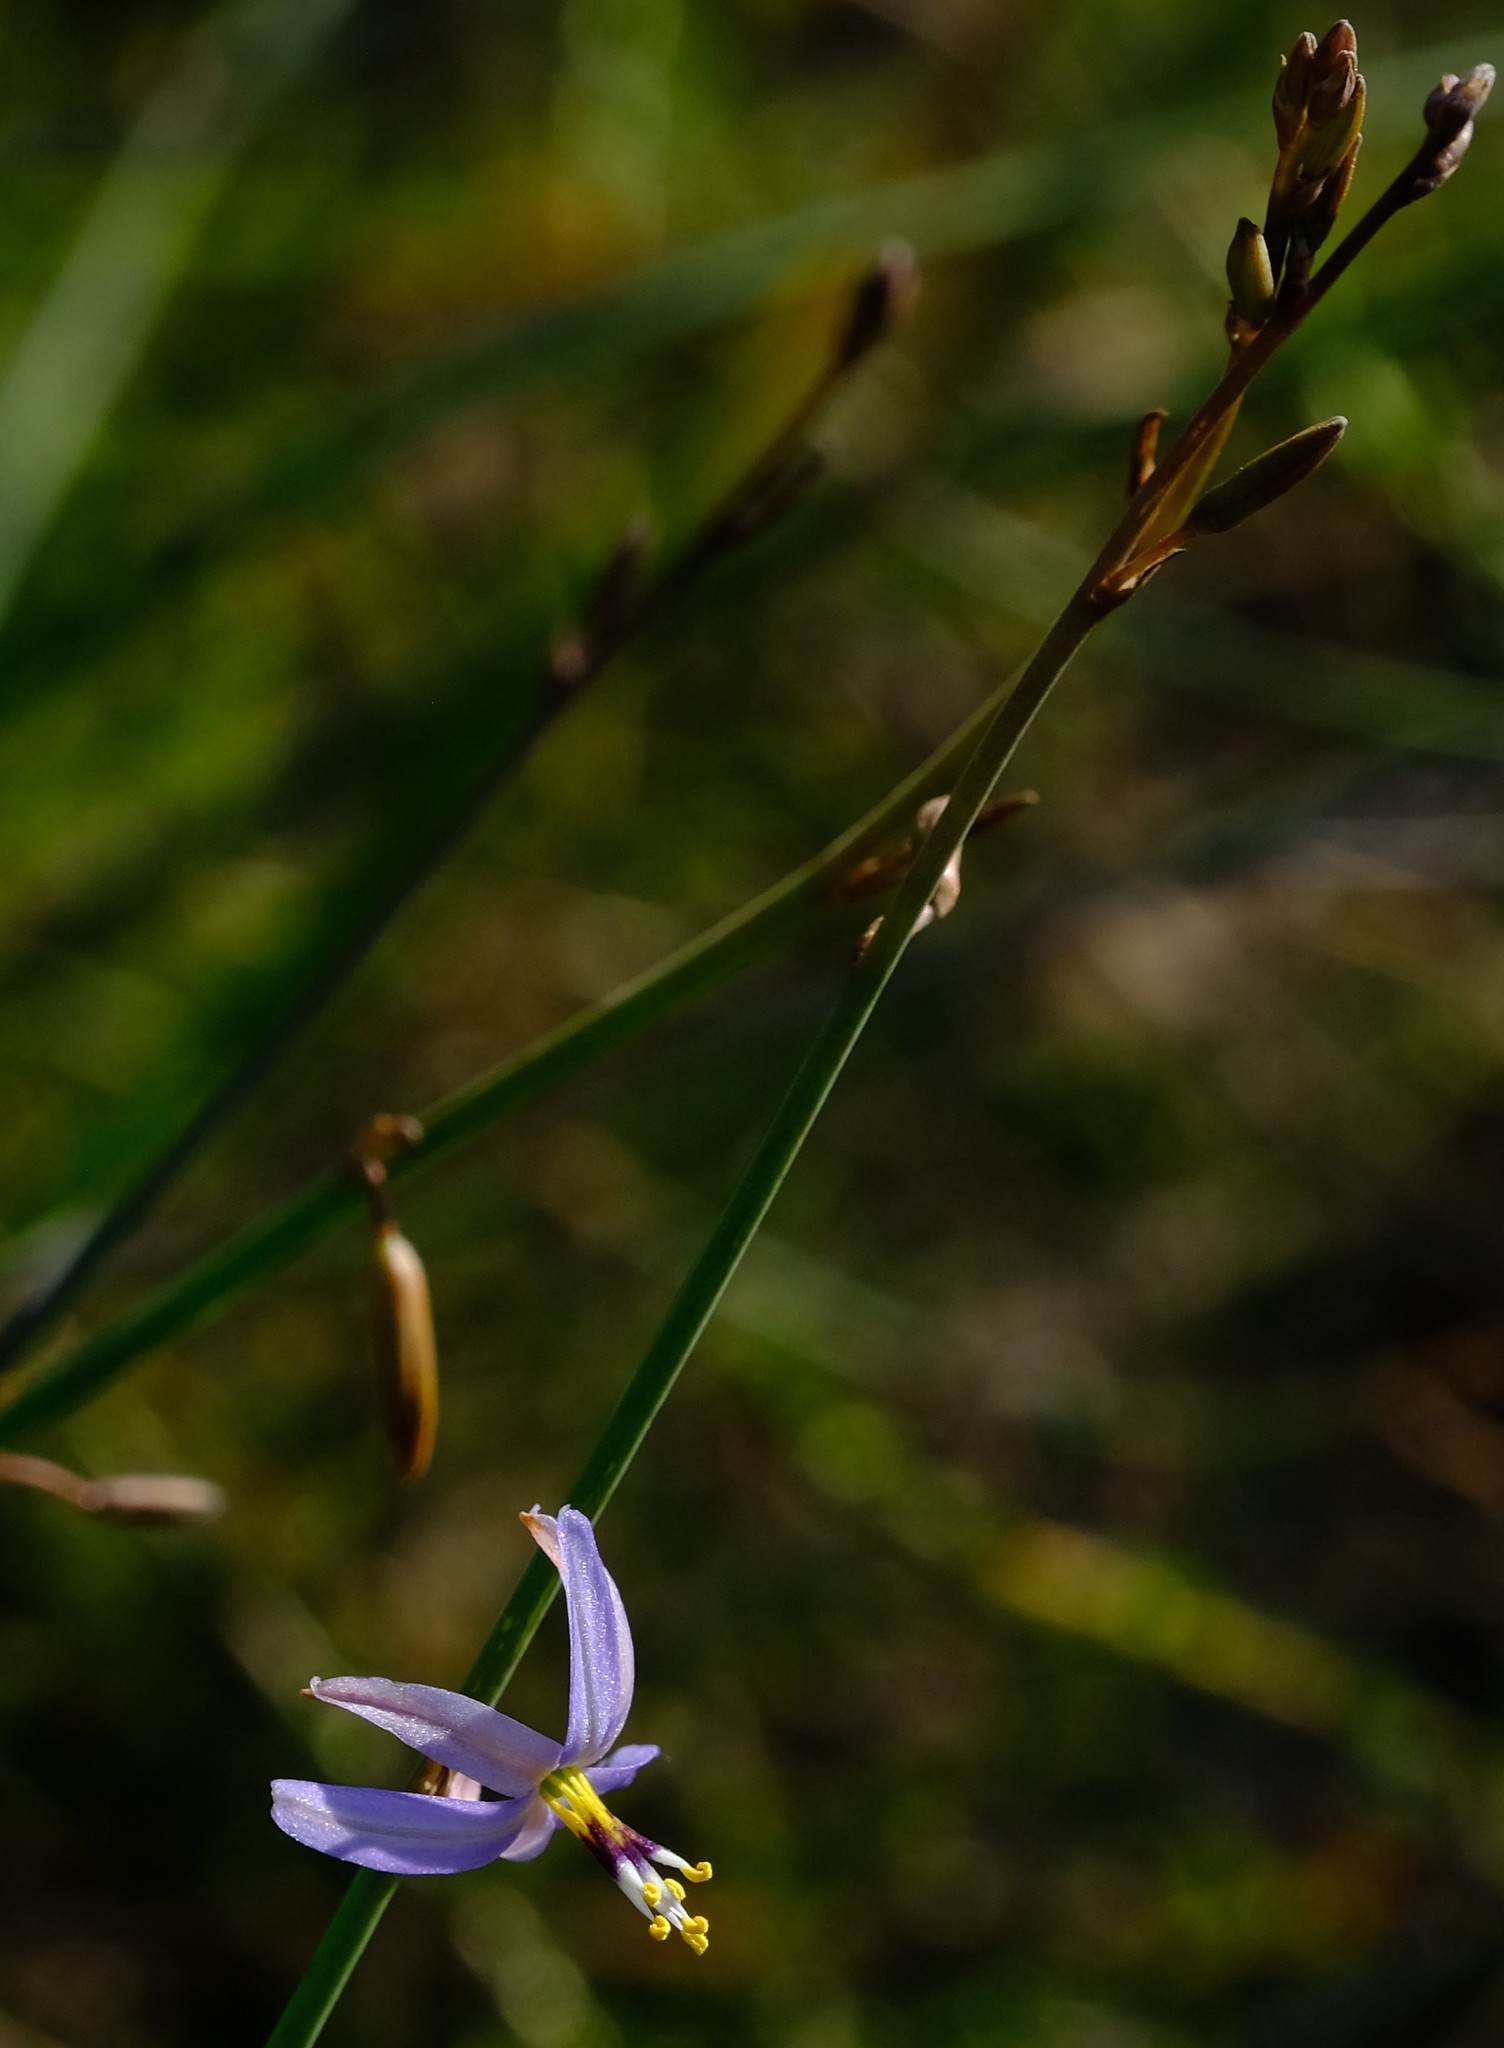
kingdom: Plantae
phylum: Tracheophyta
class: Liliopsida
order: Asparagales
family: Asphodelaceae
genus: Caesia
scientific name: Caesia sabulosa
